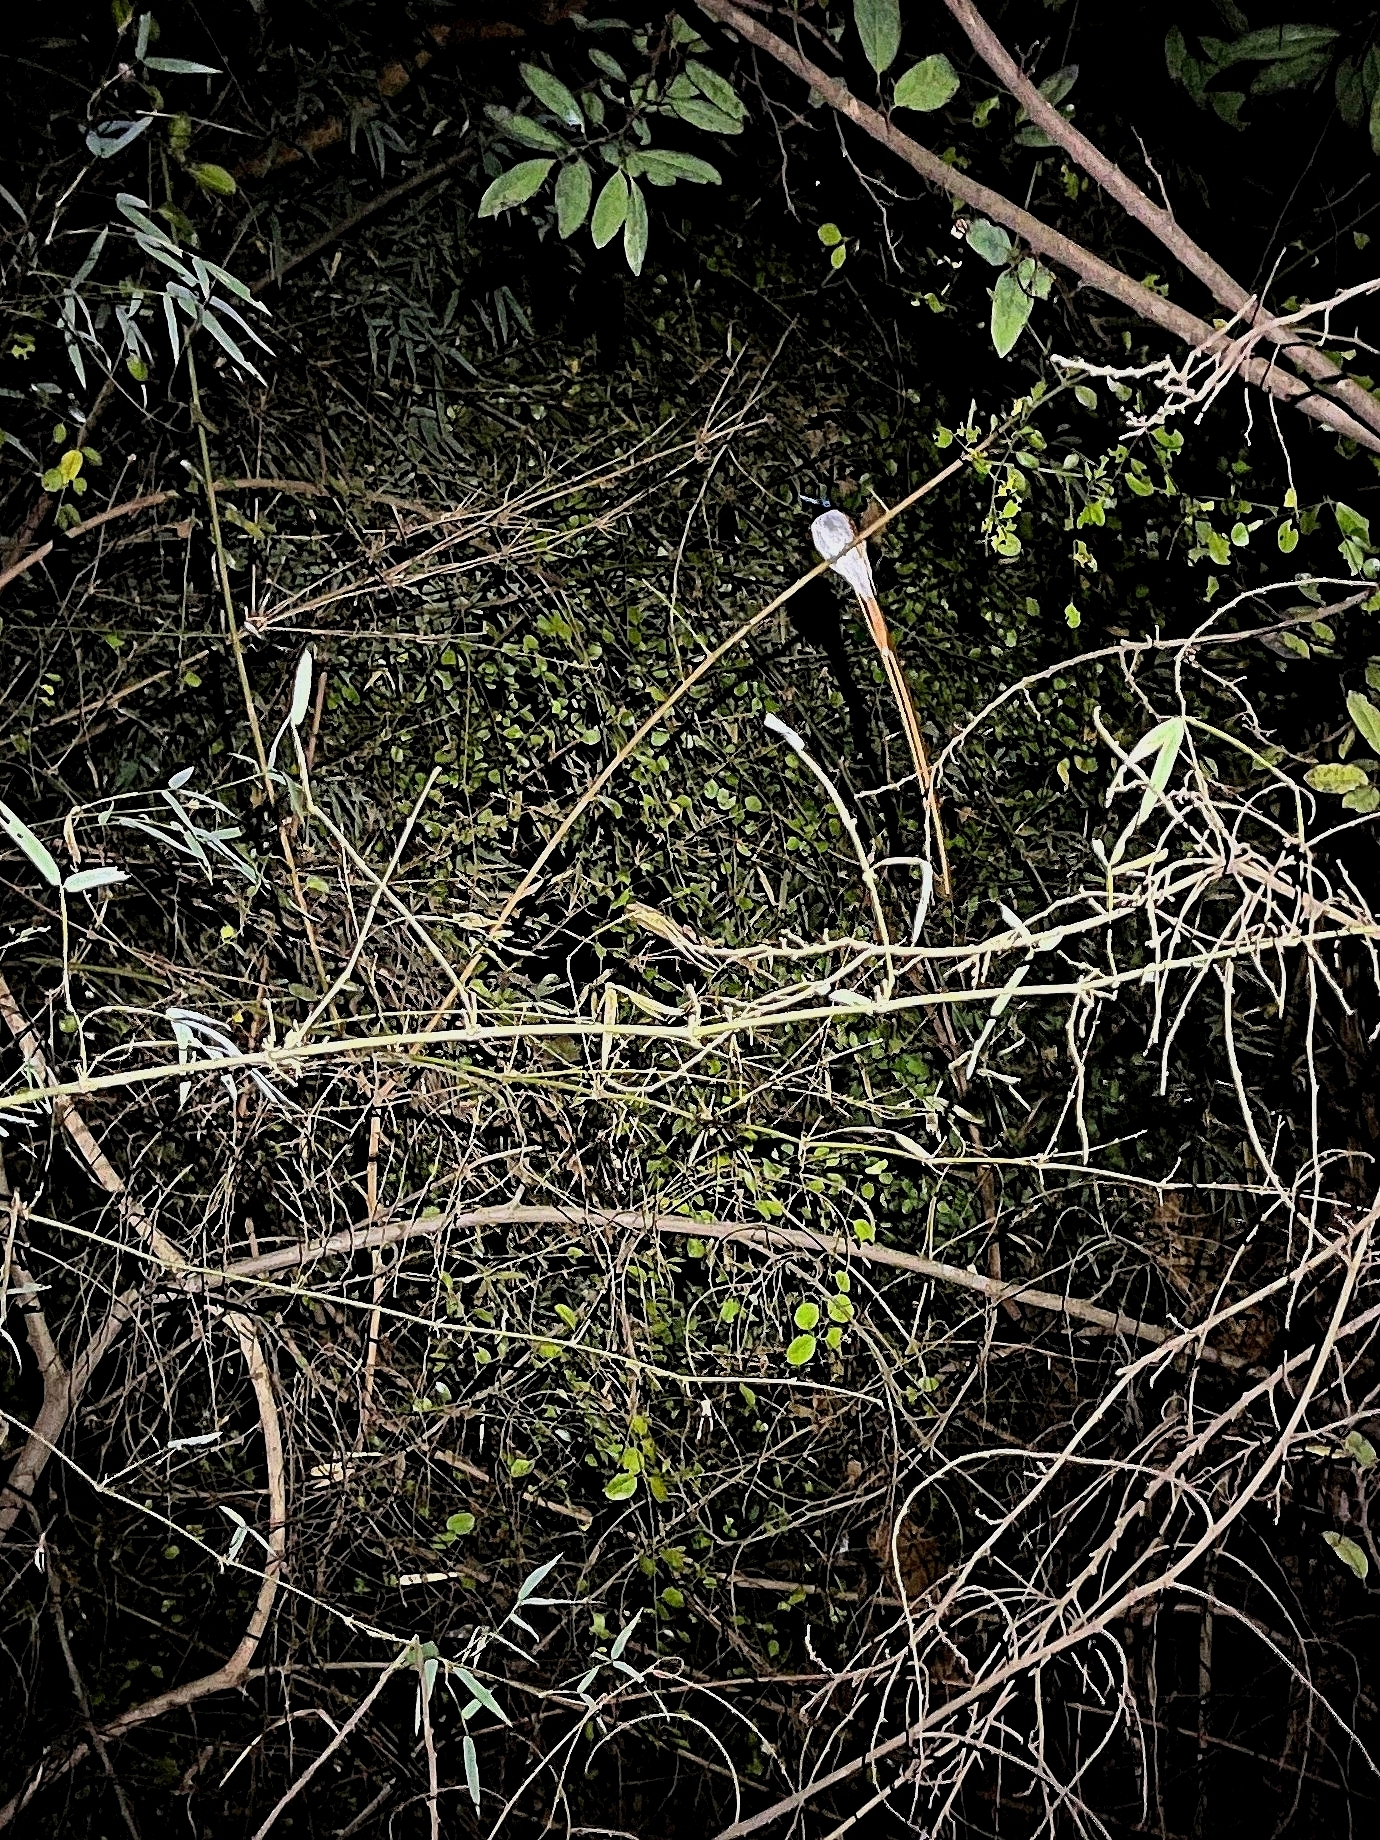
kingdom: Animalia
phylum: Chordata
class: Aves
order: Passeriformes
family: Monarchidae
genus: Terpsiphone
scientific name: Terpsiphone paradisi
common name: Indian paradise flycatcher
